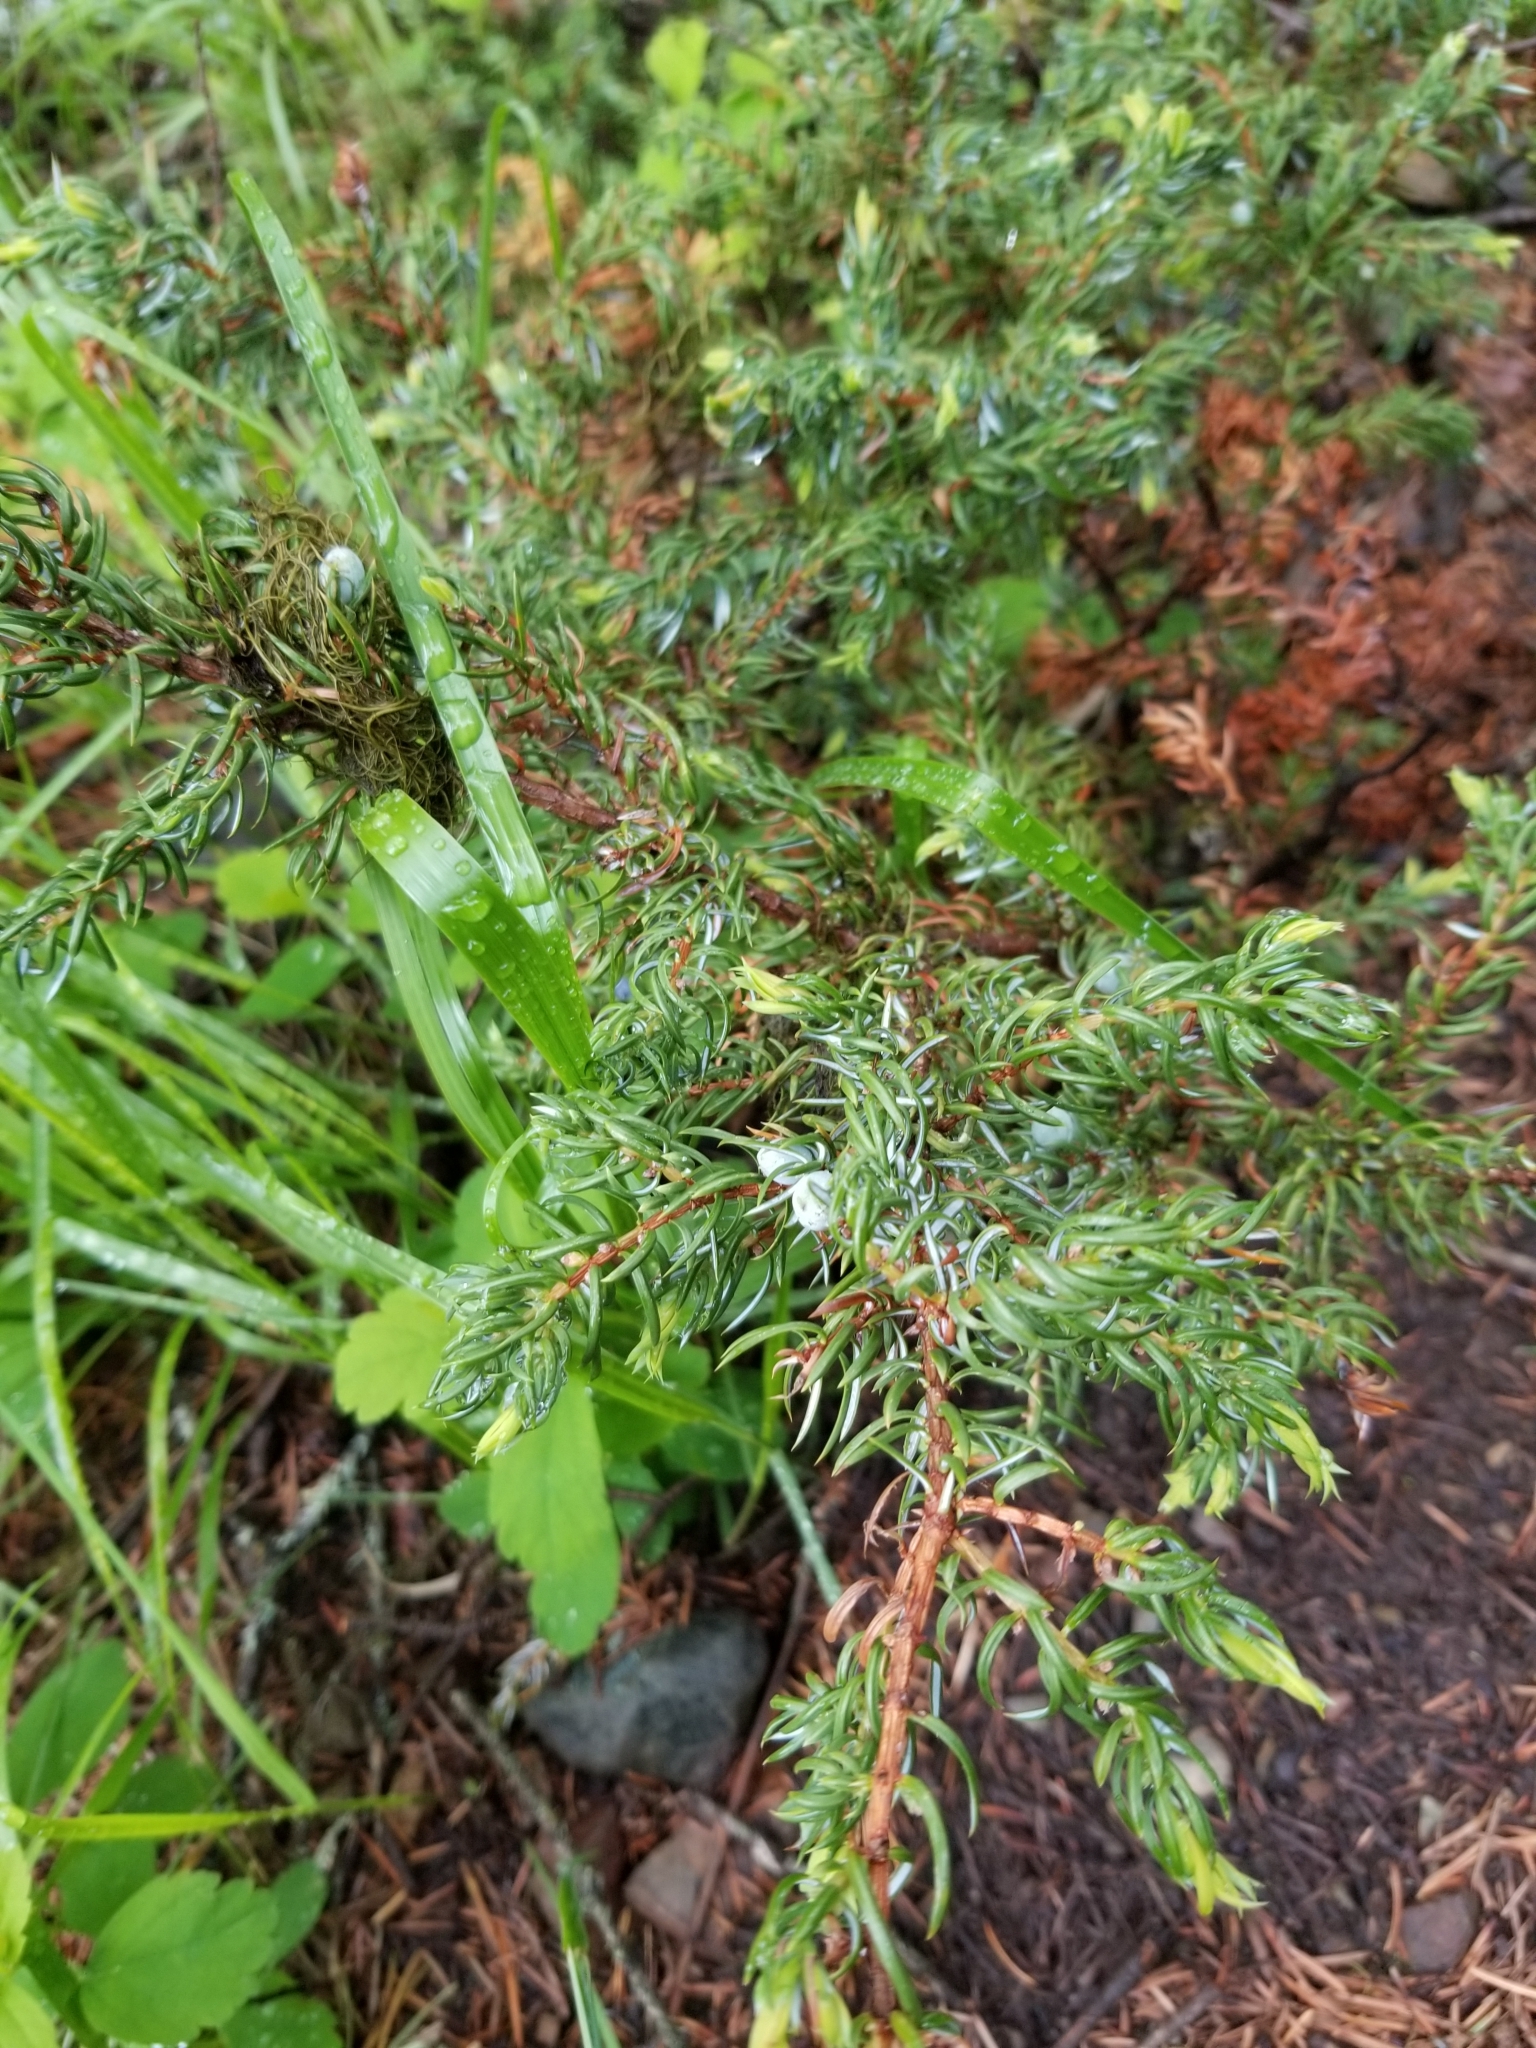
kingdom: Plantae
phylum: Tracheophyta
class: Pinopsida
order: Pinales
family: Cupressaceae
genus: Juniperus
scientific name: Juniperus communis
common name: Common juniper
